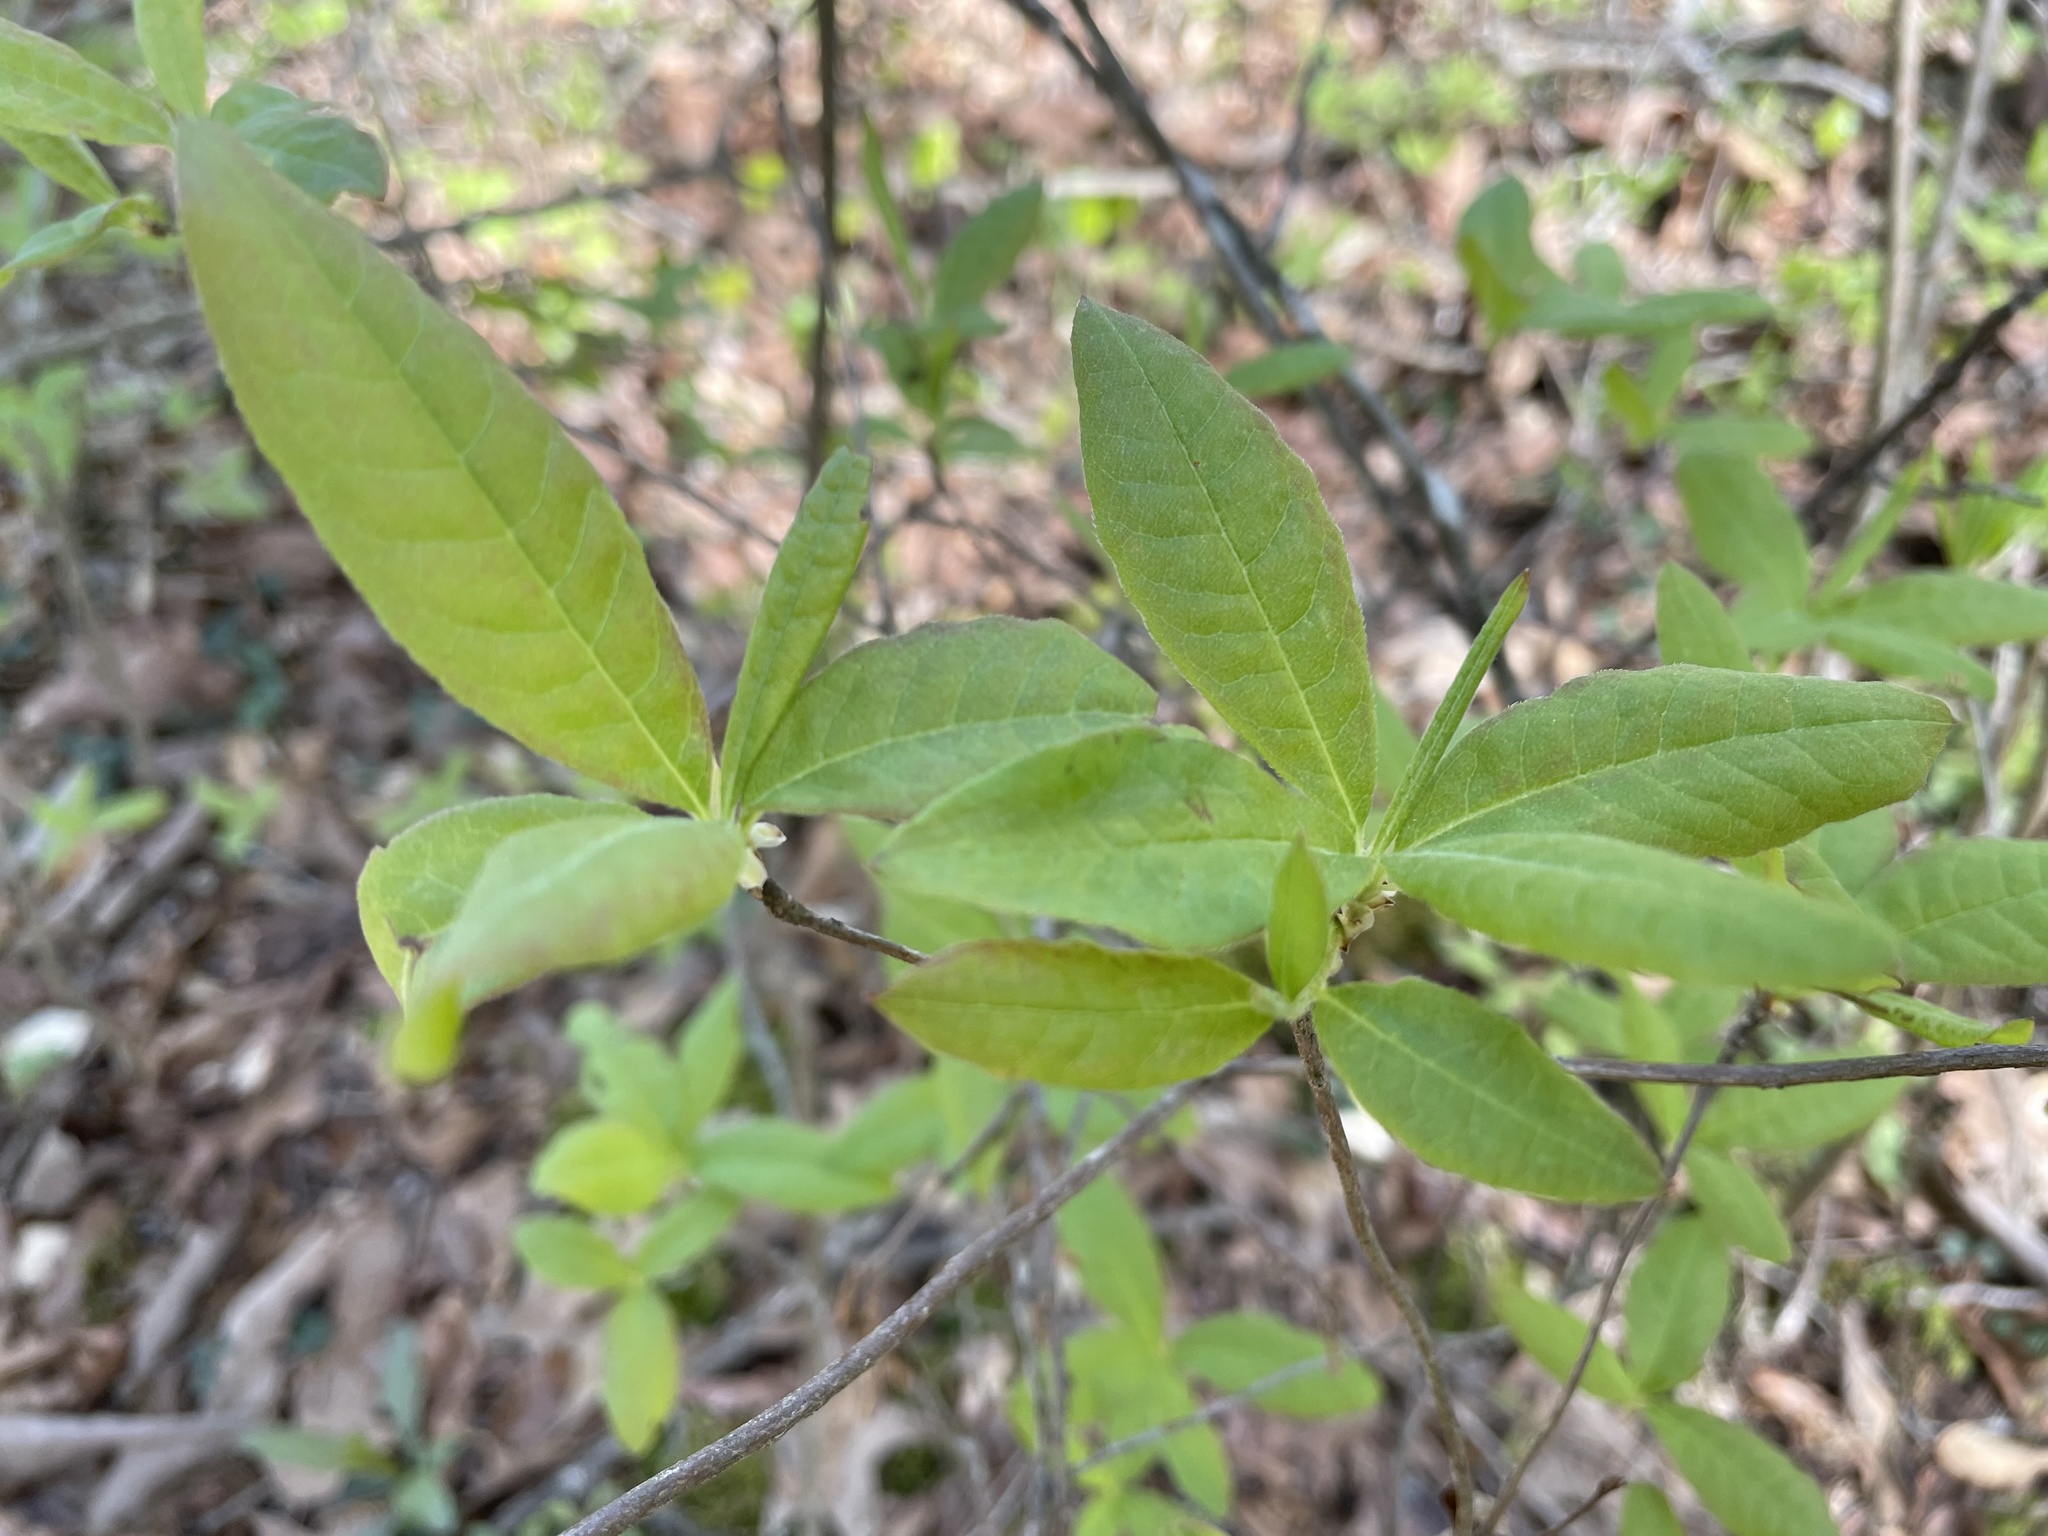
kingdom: Plantae
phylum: Tracheophyta
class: Magnoliopsida
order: Ericales
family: Ericaceae
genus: Rhododendron
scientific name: Rhododendron canescens
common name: Mountain azalea
